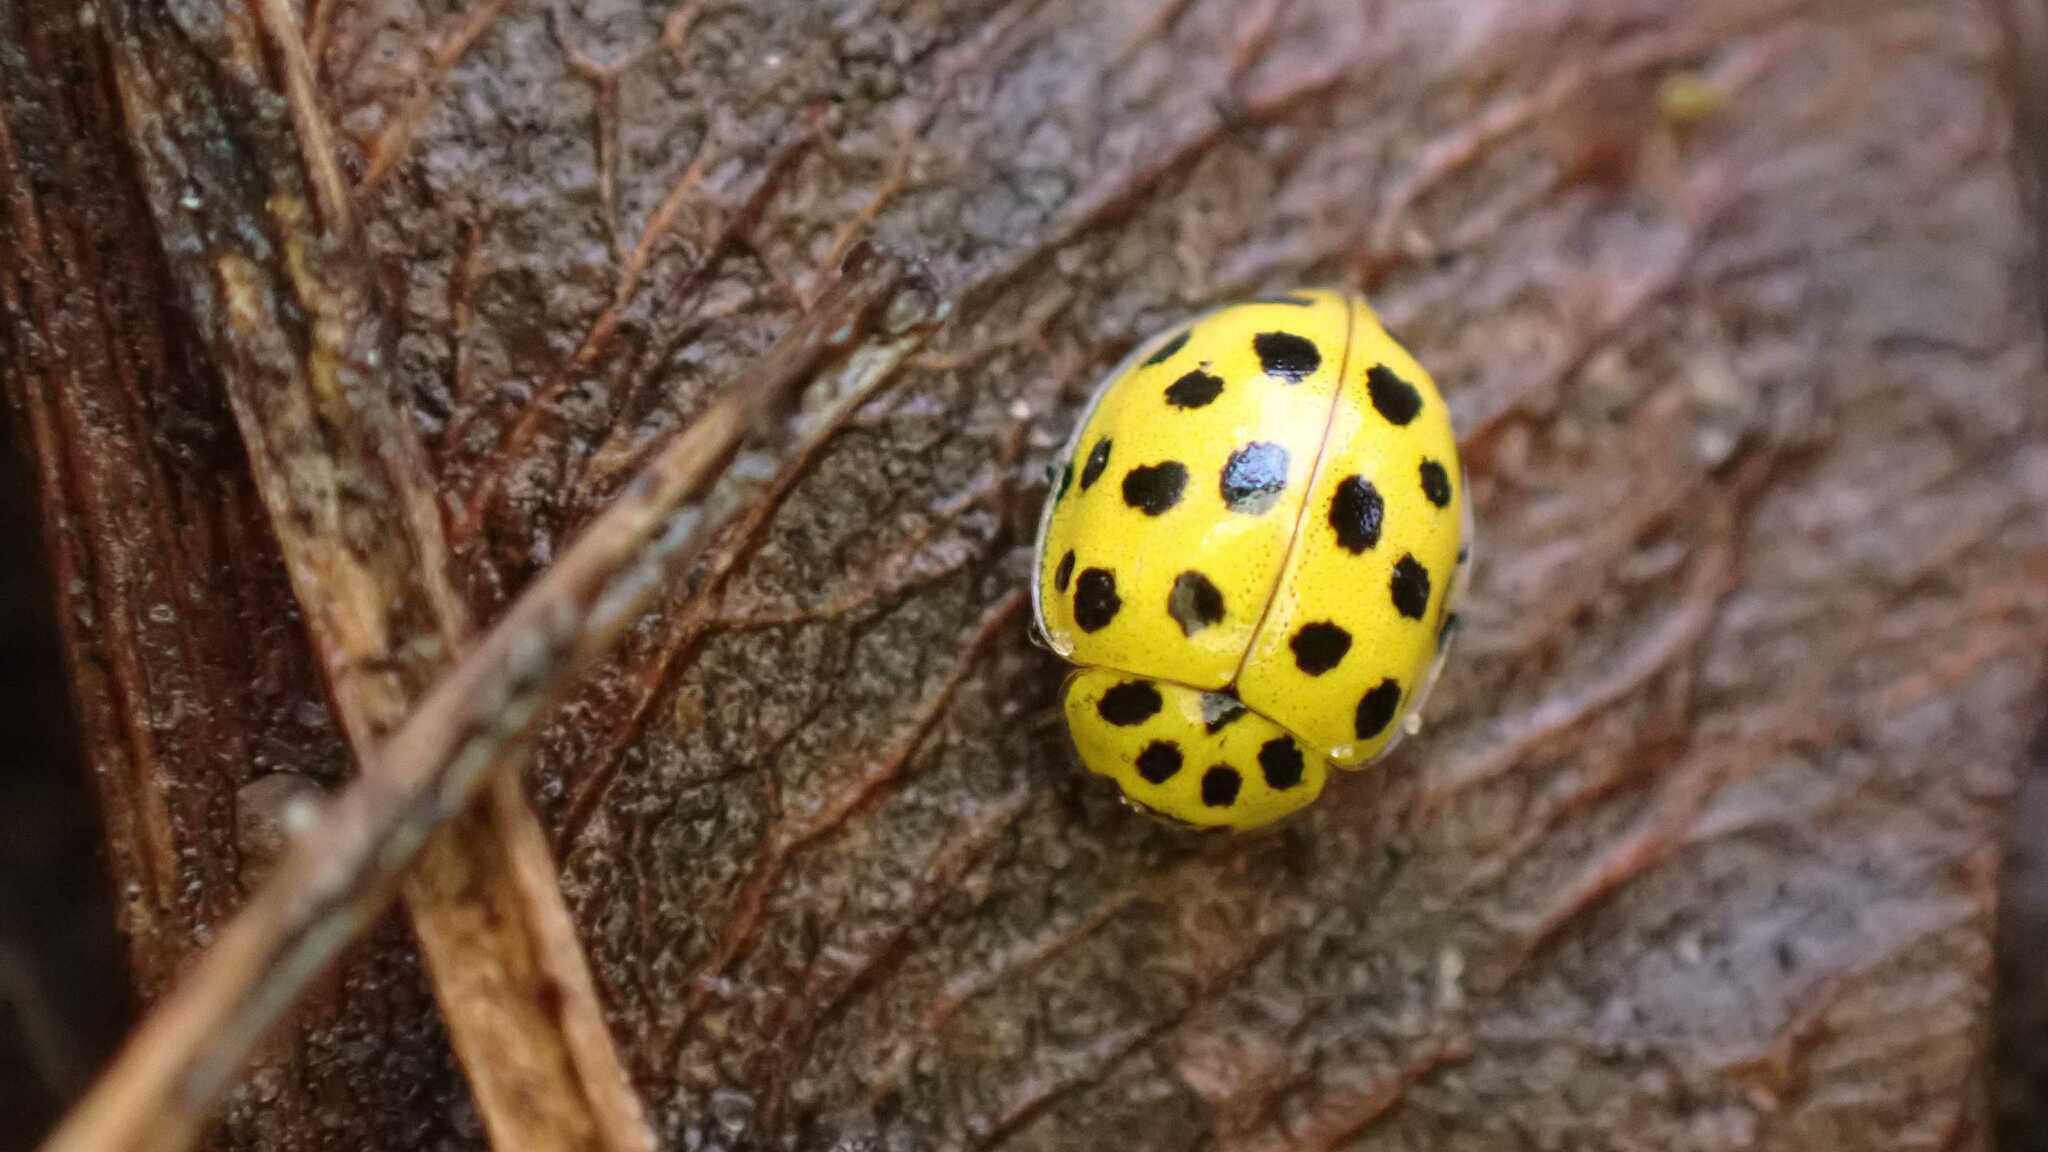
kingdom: Animalia
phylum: Arthropoda
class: Insecta
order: Coleoptera
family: Coccinellidae
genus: Psyllobora
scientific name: Psyllobora vigintiduopunctata
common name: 22-spot ladybird
